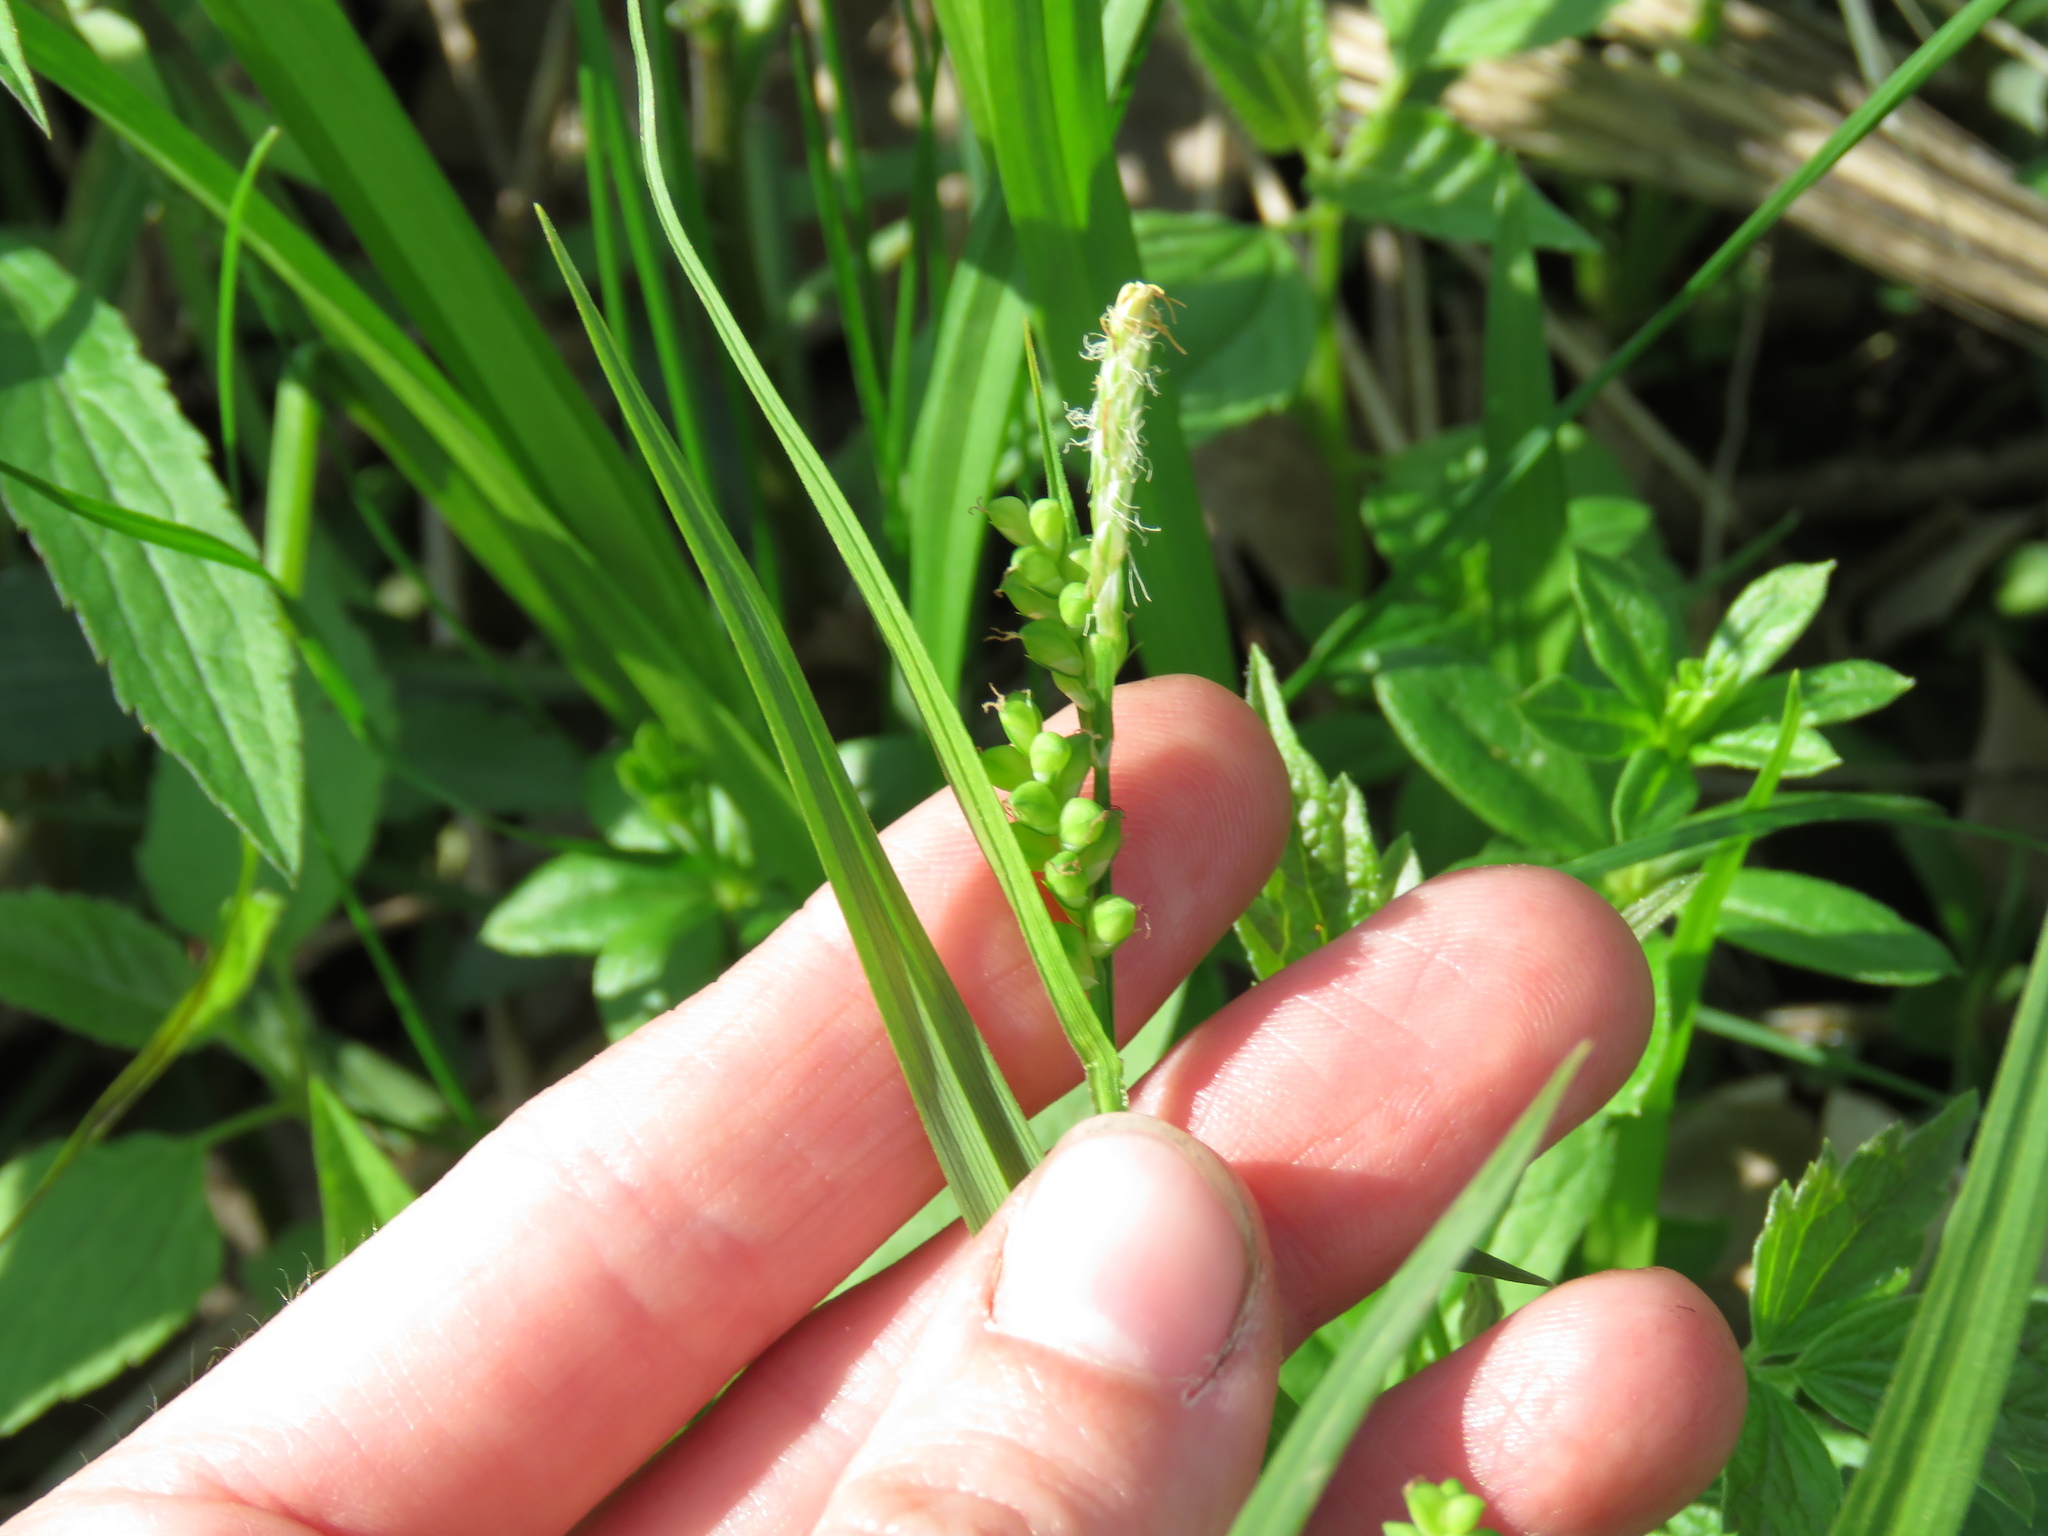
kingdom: Plantae
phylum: Tracheophyta
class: Liliopsida
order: Poales
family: Cyperaceae
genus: Carex
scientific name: Carex blanda
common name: Bland sedge
